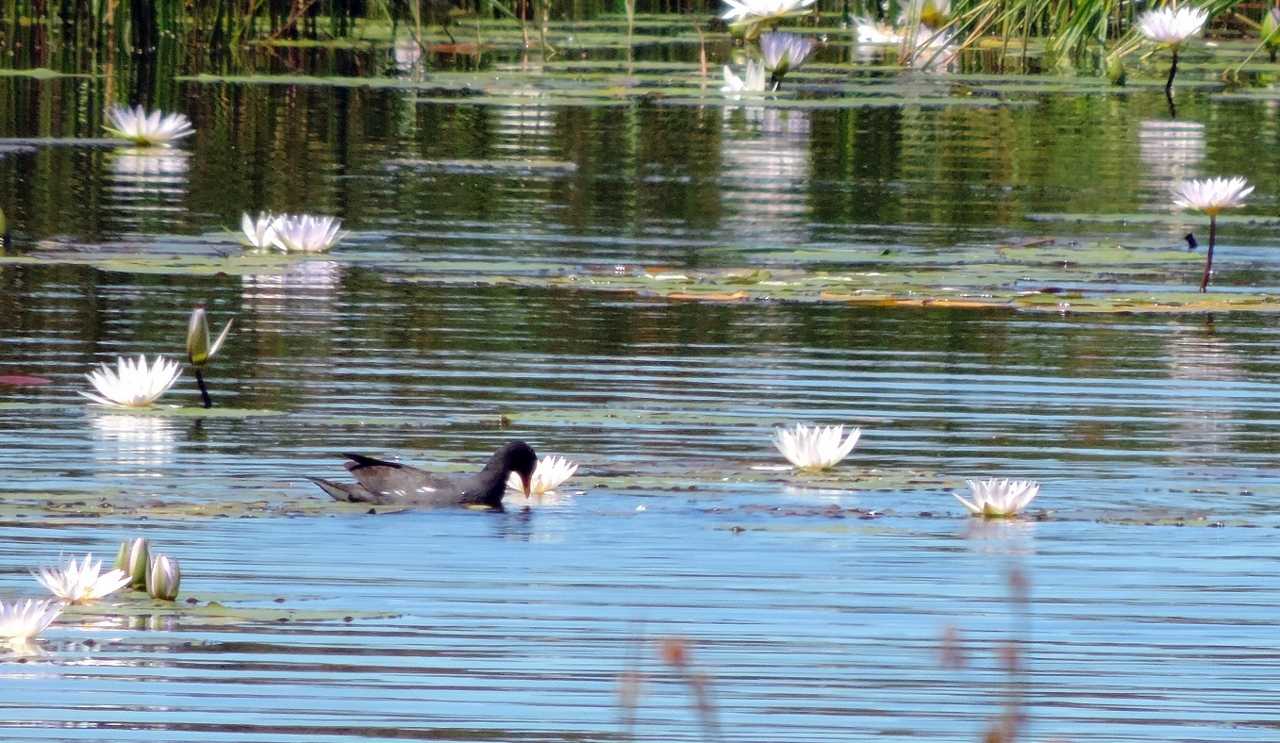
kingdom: Animalia
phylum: Chordata
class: Aves
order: Gruiformes
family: Rallidae
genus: Gallinula
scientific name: Gallinula chloropus
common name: Common moorhen
